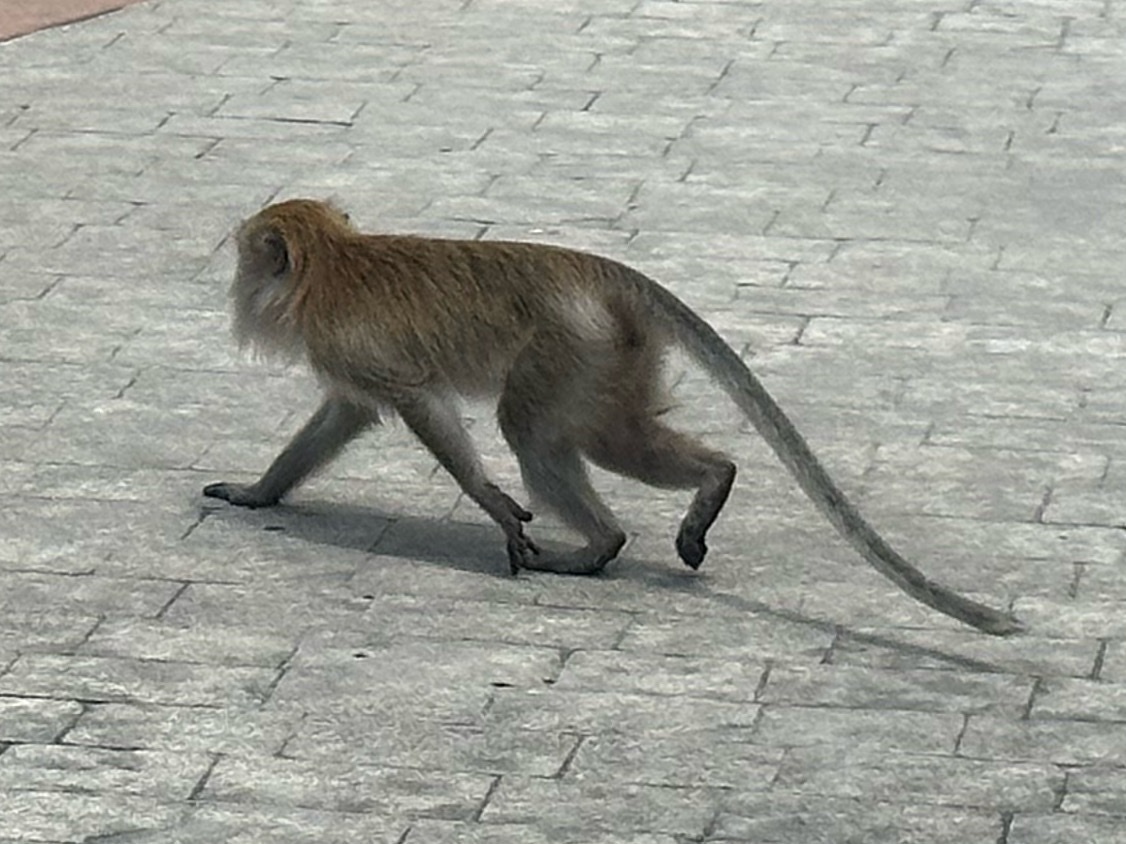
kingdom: Animalia
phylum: Chordata
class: Mammalia
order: Primates
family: Cercopithecidae
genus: Macaca
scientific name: Macaca fascicularis
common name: Crab-eating macaque
